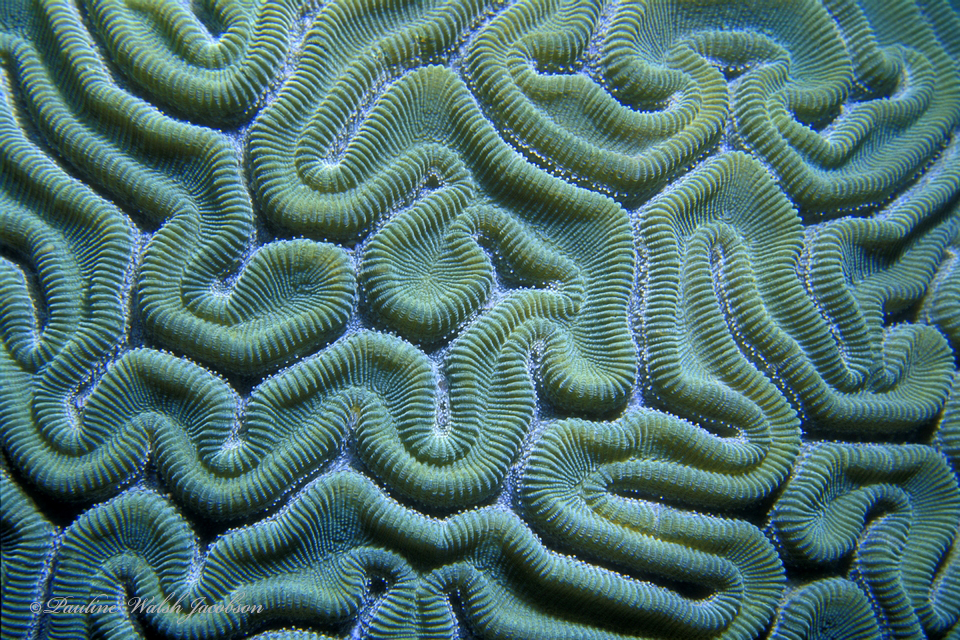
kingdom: Animalia
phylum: Cnidaria
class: Anthozoa
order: Scleractinia
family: Faviidae
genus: Diploria
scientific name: Diploria labyrinthiformis
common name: Grooved brain coral
